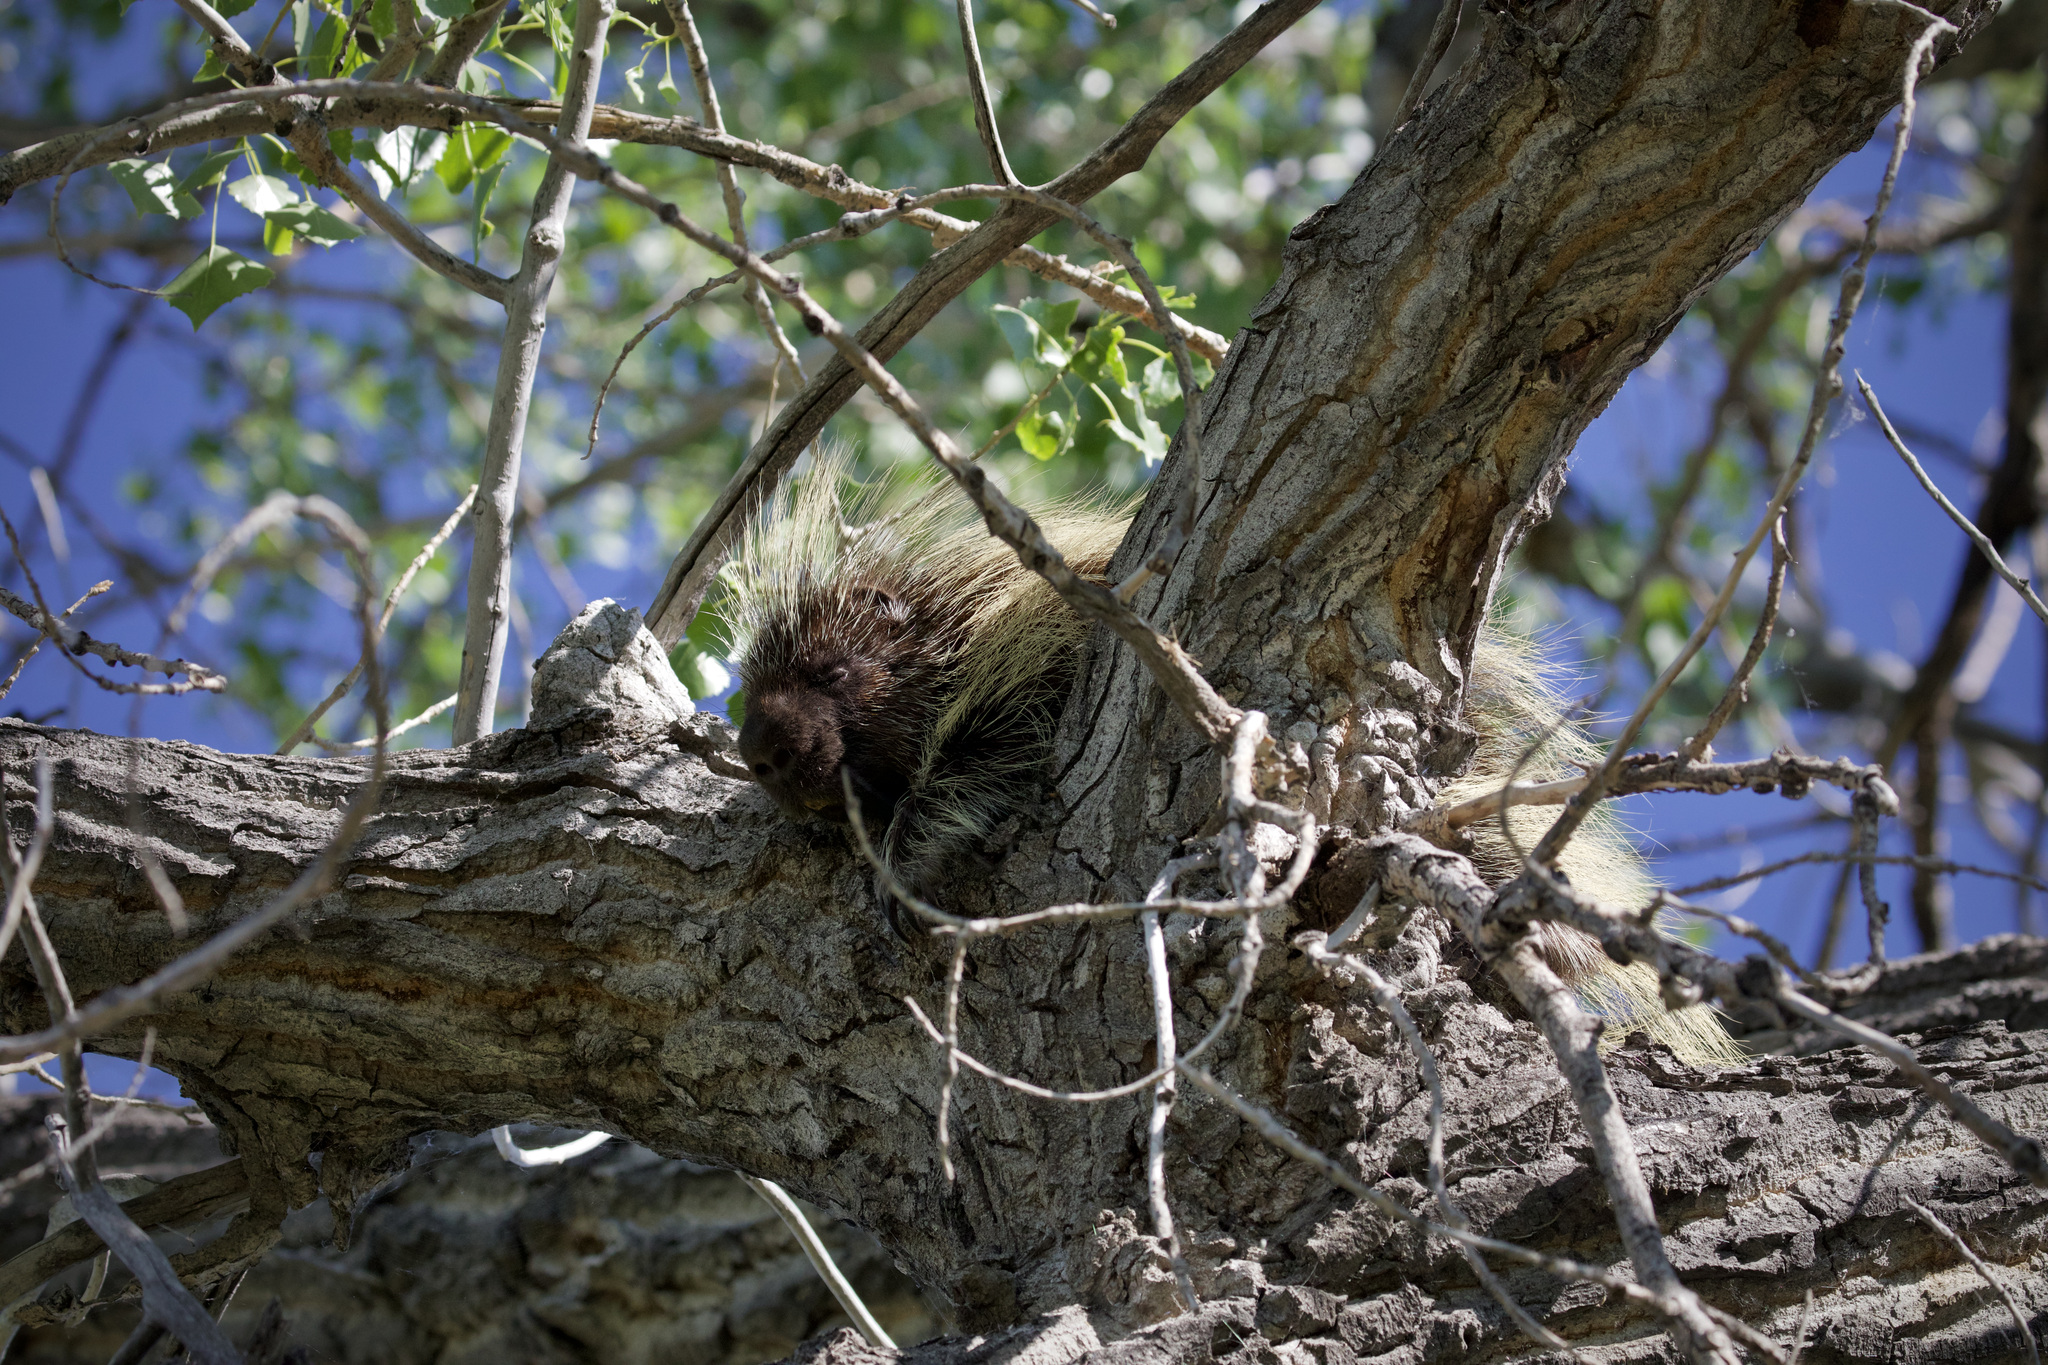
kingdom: Animalia
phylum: Chordata
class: Mammalia
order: Rodentia
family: Erethizontidae
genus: Erethizon
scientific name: Erethizon dorsatus
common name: North american porcupine
